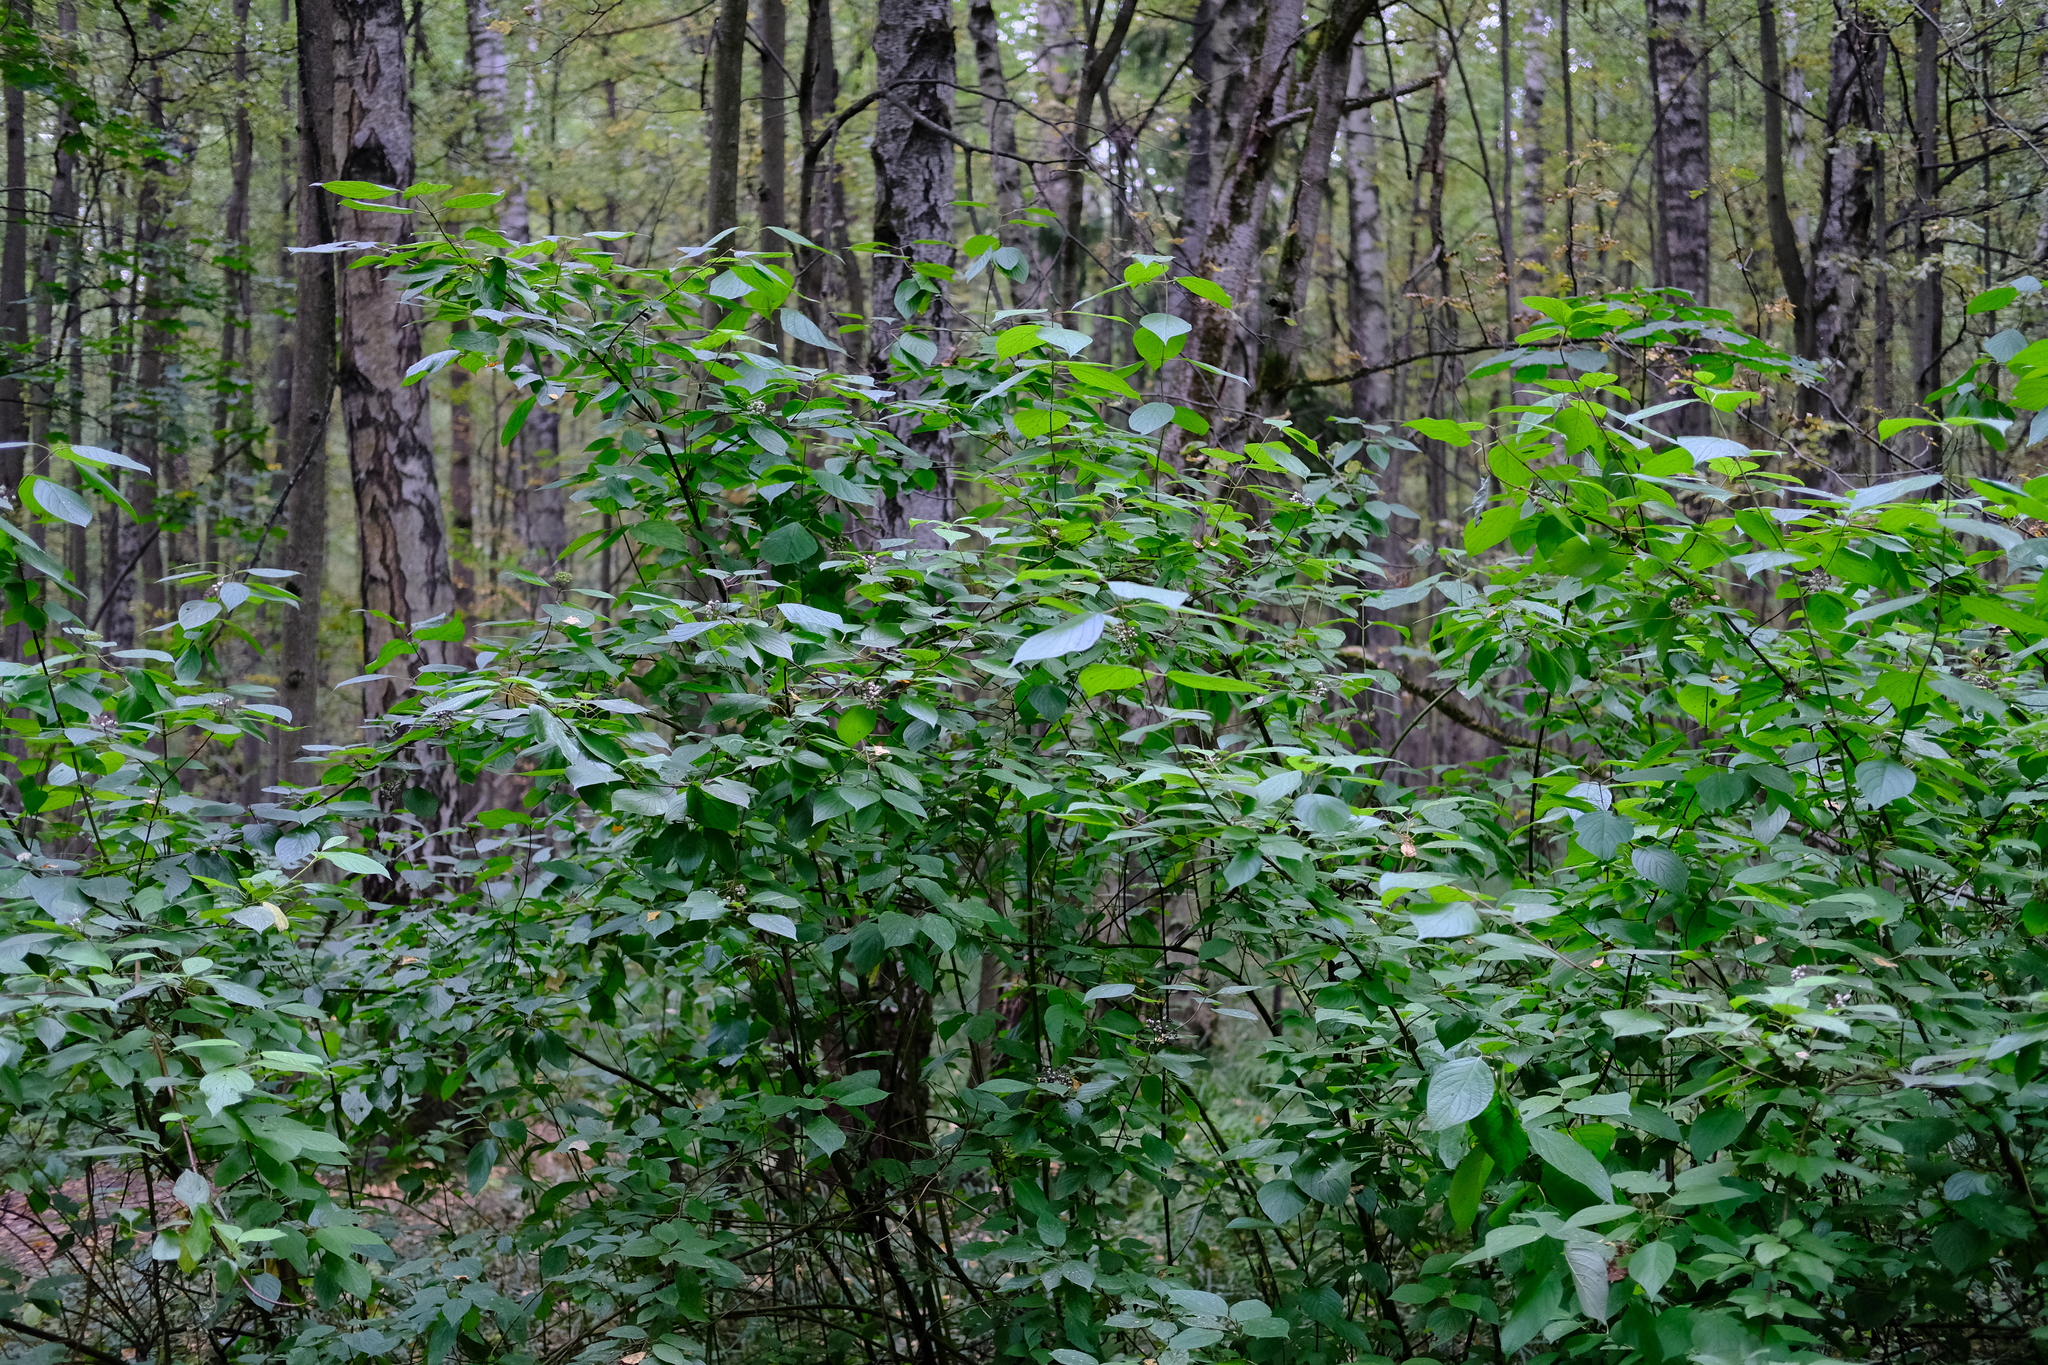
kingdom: Plantae
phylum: Tracheophyta
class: Magnoliopsida
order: Cornales
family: Cornaceae
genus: Cornus
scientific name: Cornus alba
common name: White dogwood
